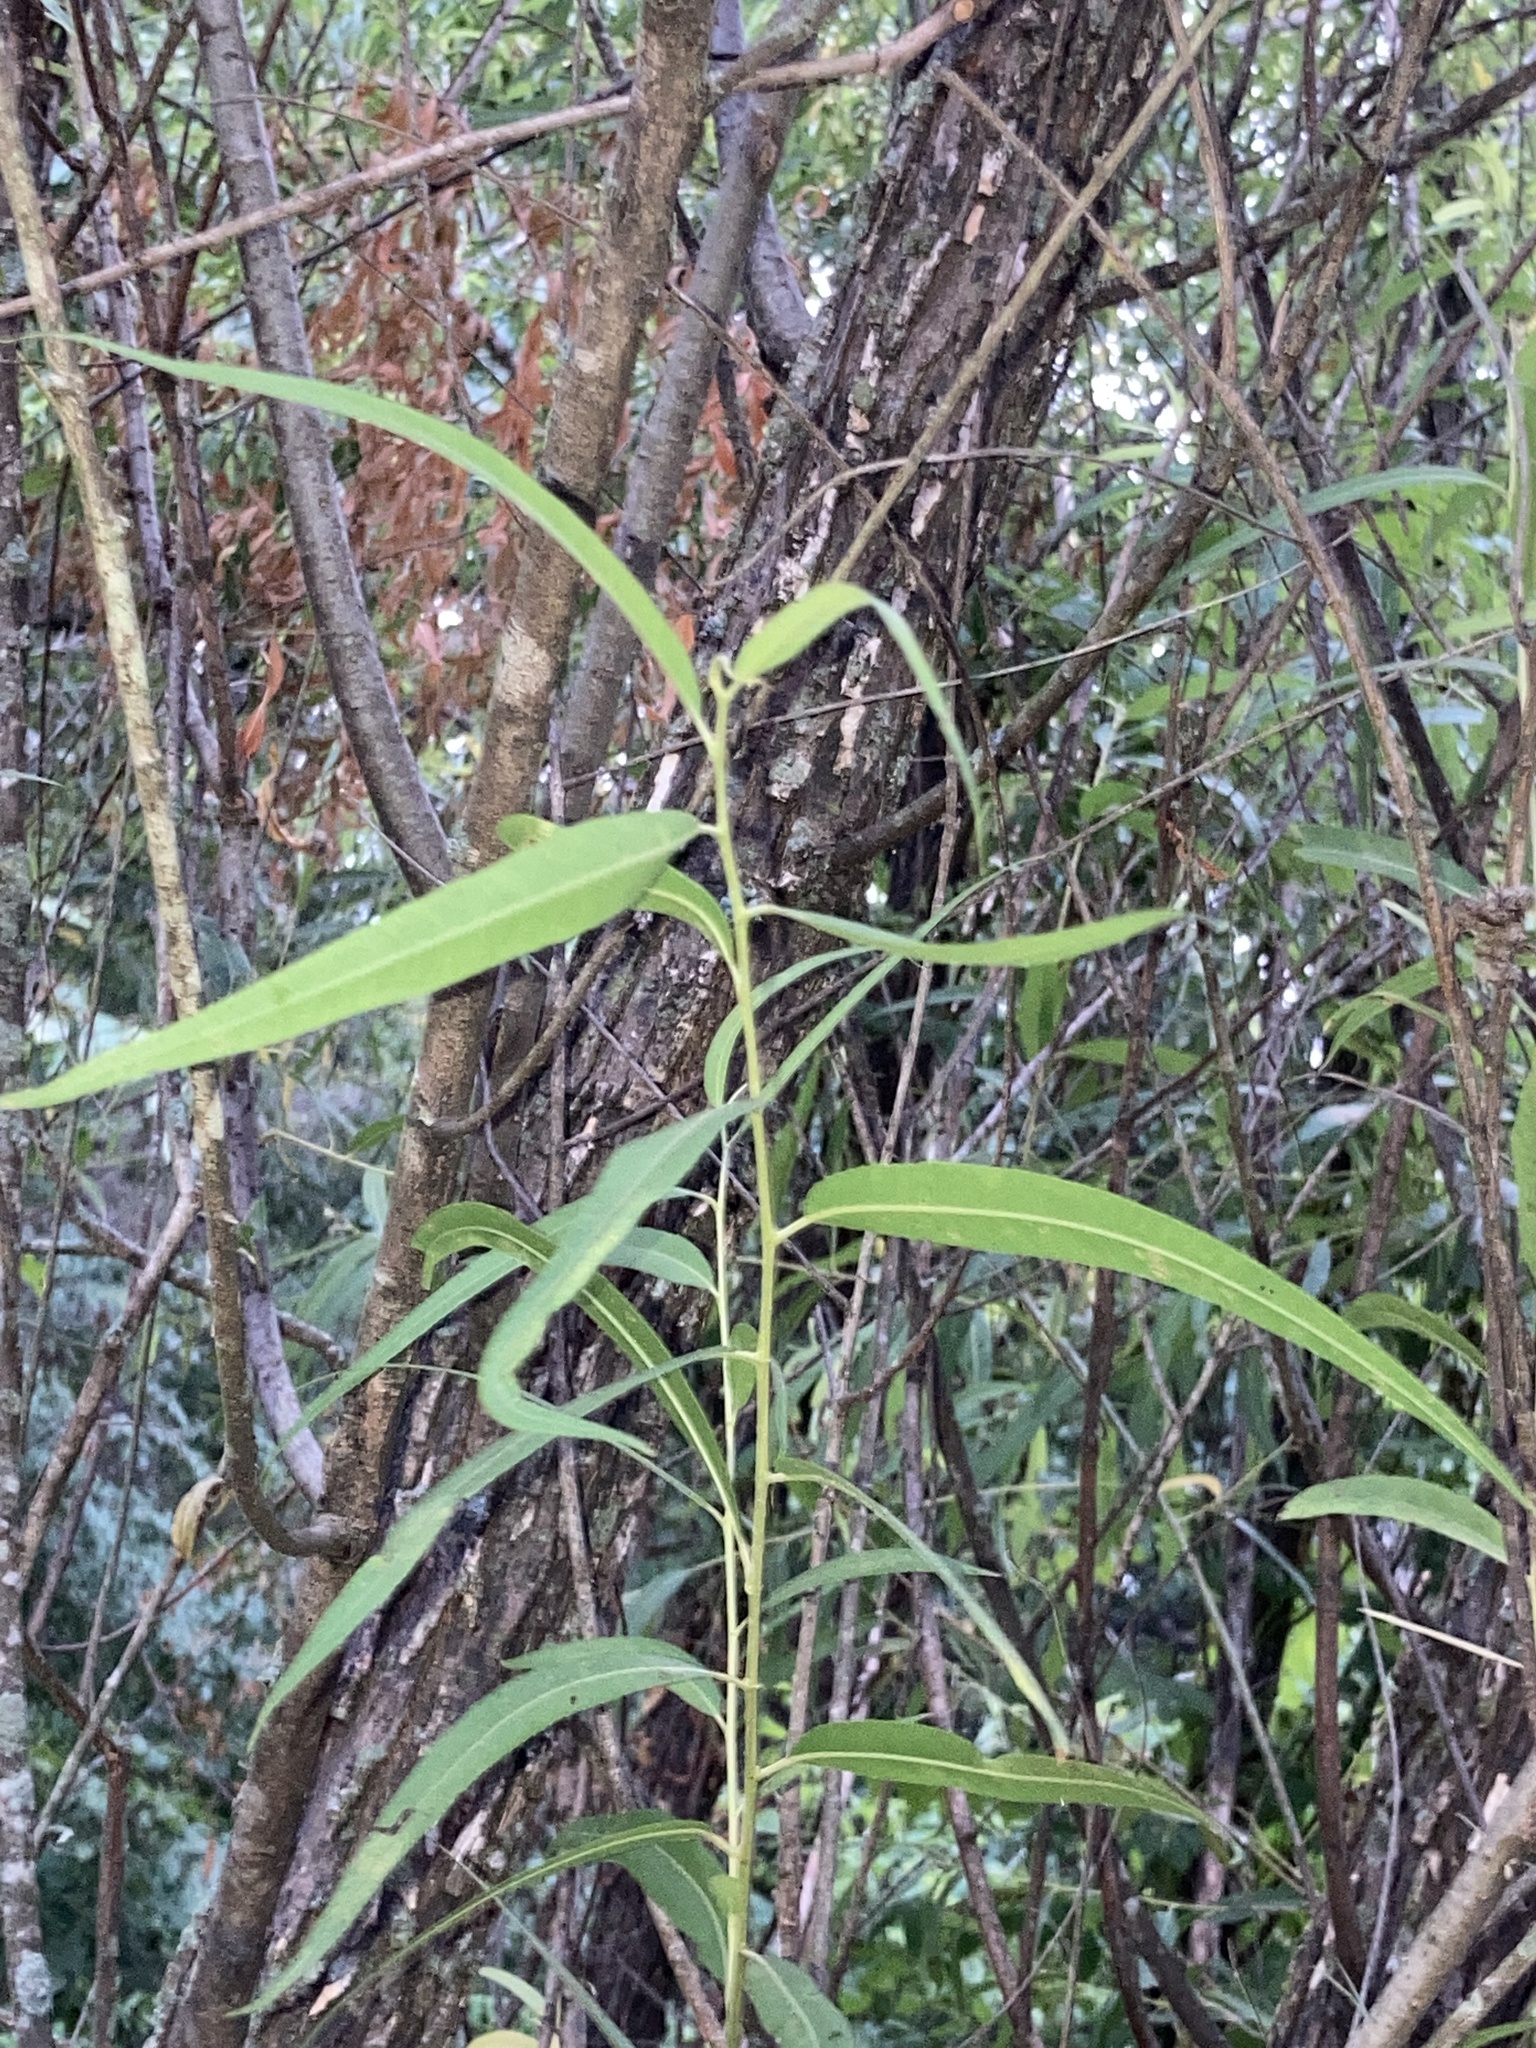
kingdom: Plantae
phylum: Tracheophyta
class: Magnoliopsida
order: Malpighiales
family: Salicaceae
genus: Salix
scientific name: Salix nigra
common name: Black willow
